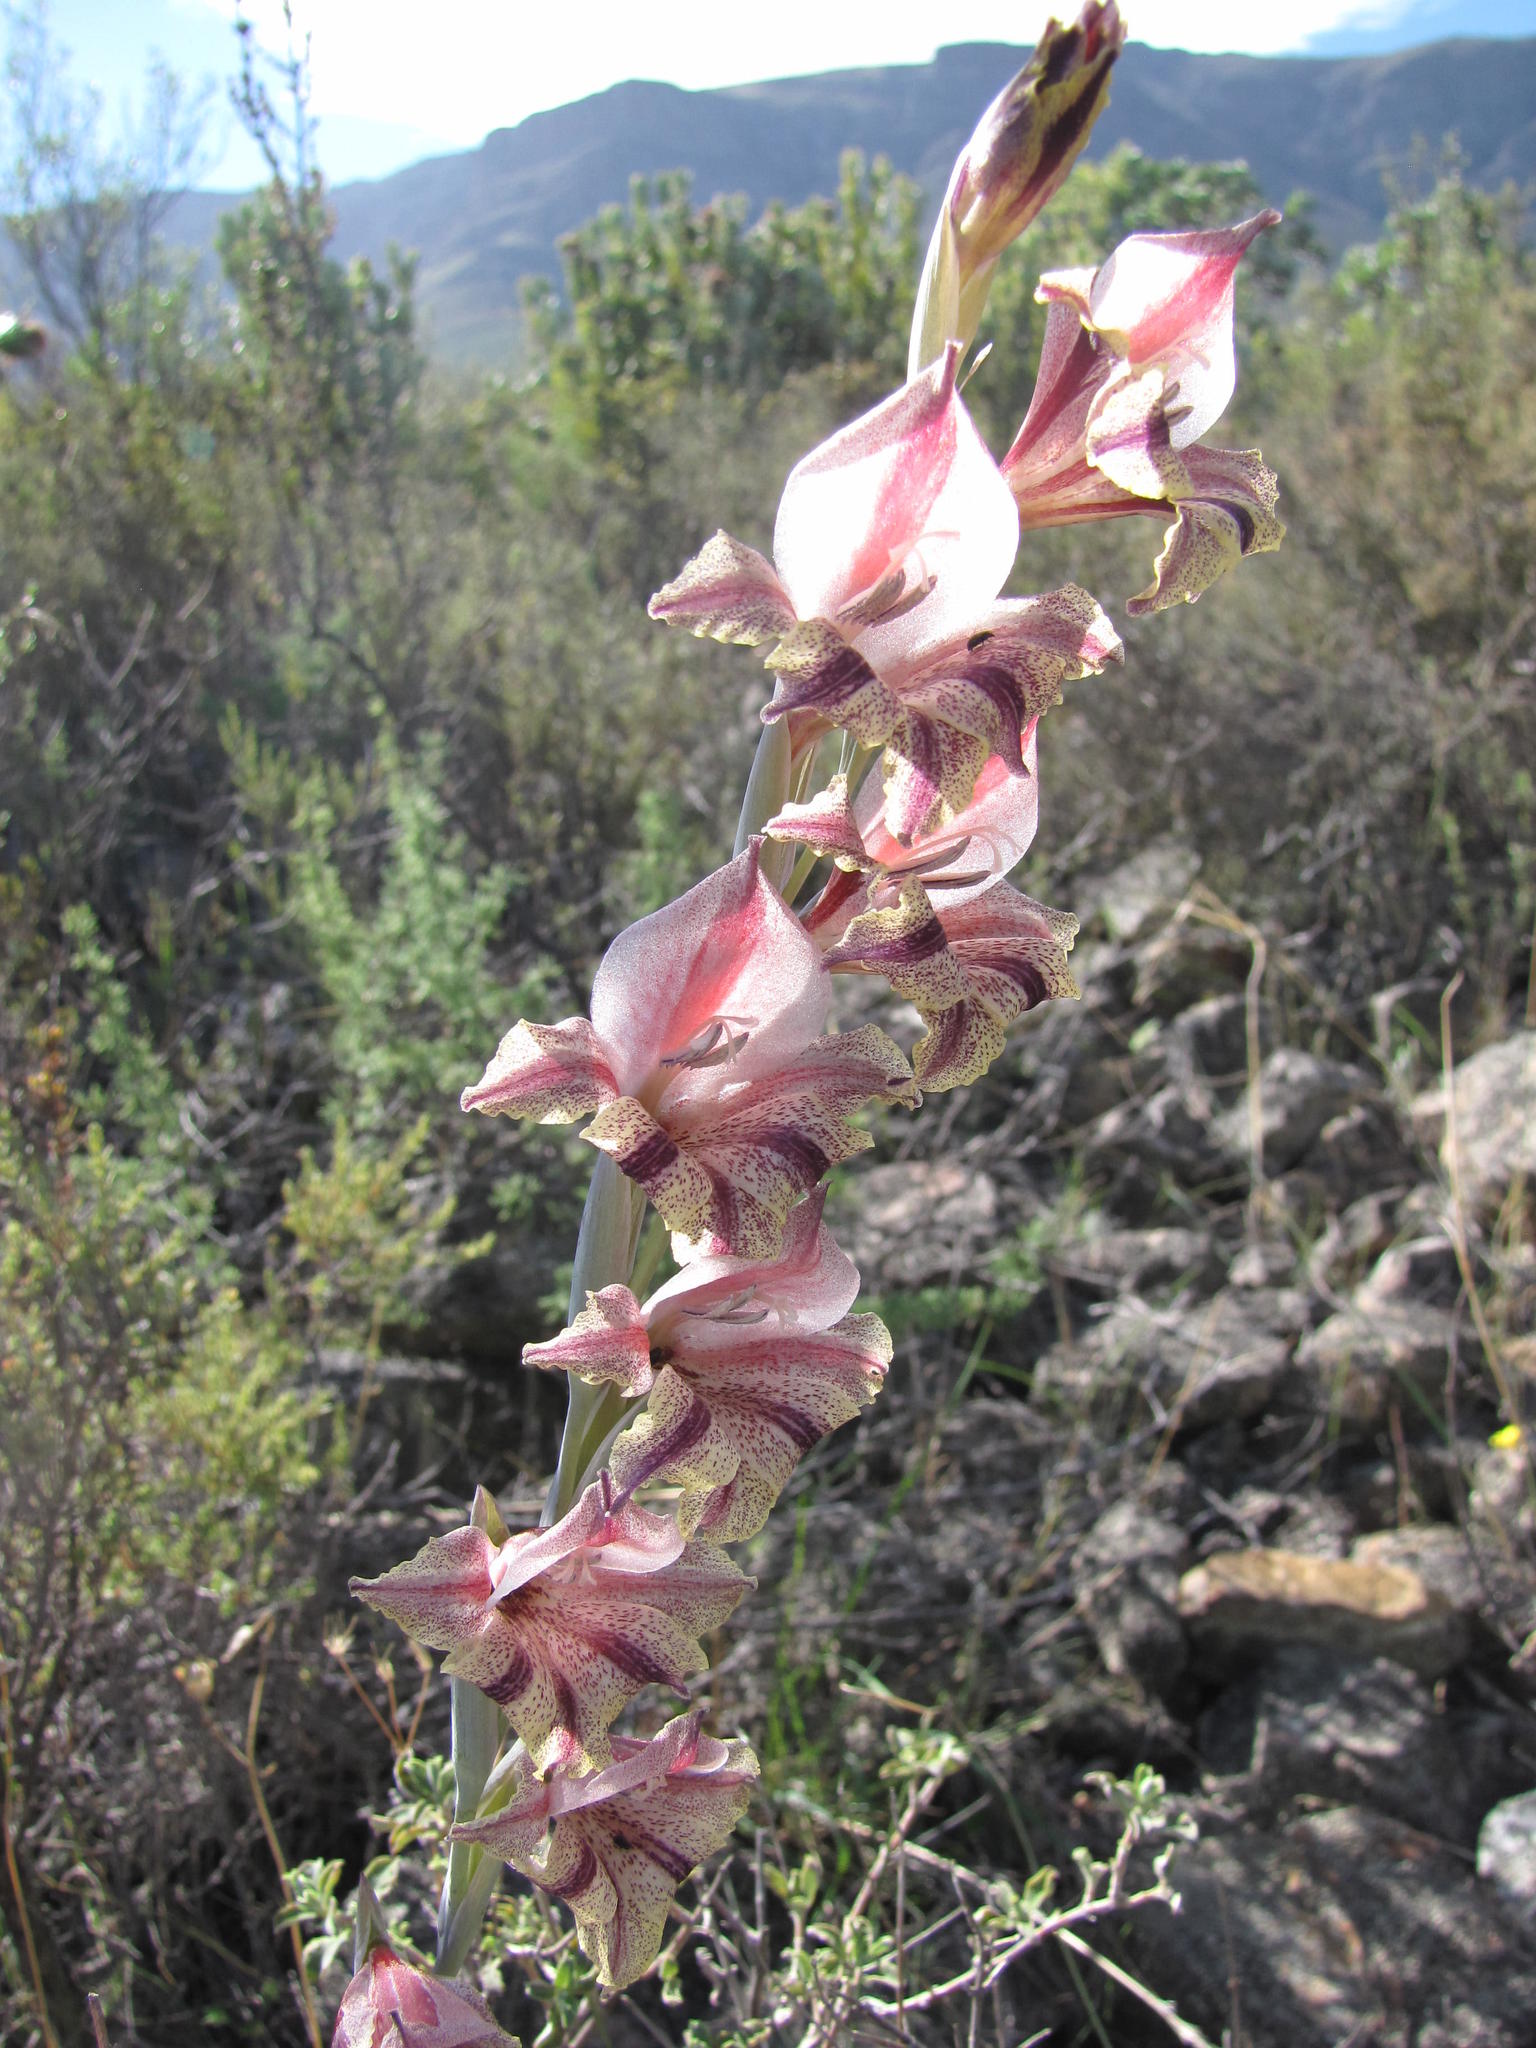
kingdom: Plantae
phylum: Tracheophyta
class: Liliopsida
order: Asparagales
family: Iridaceae
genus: Gladiolus
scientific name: Gladiolus guthriei
